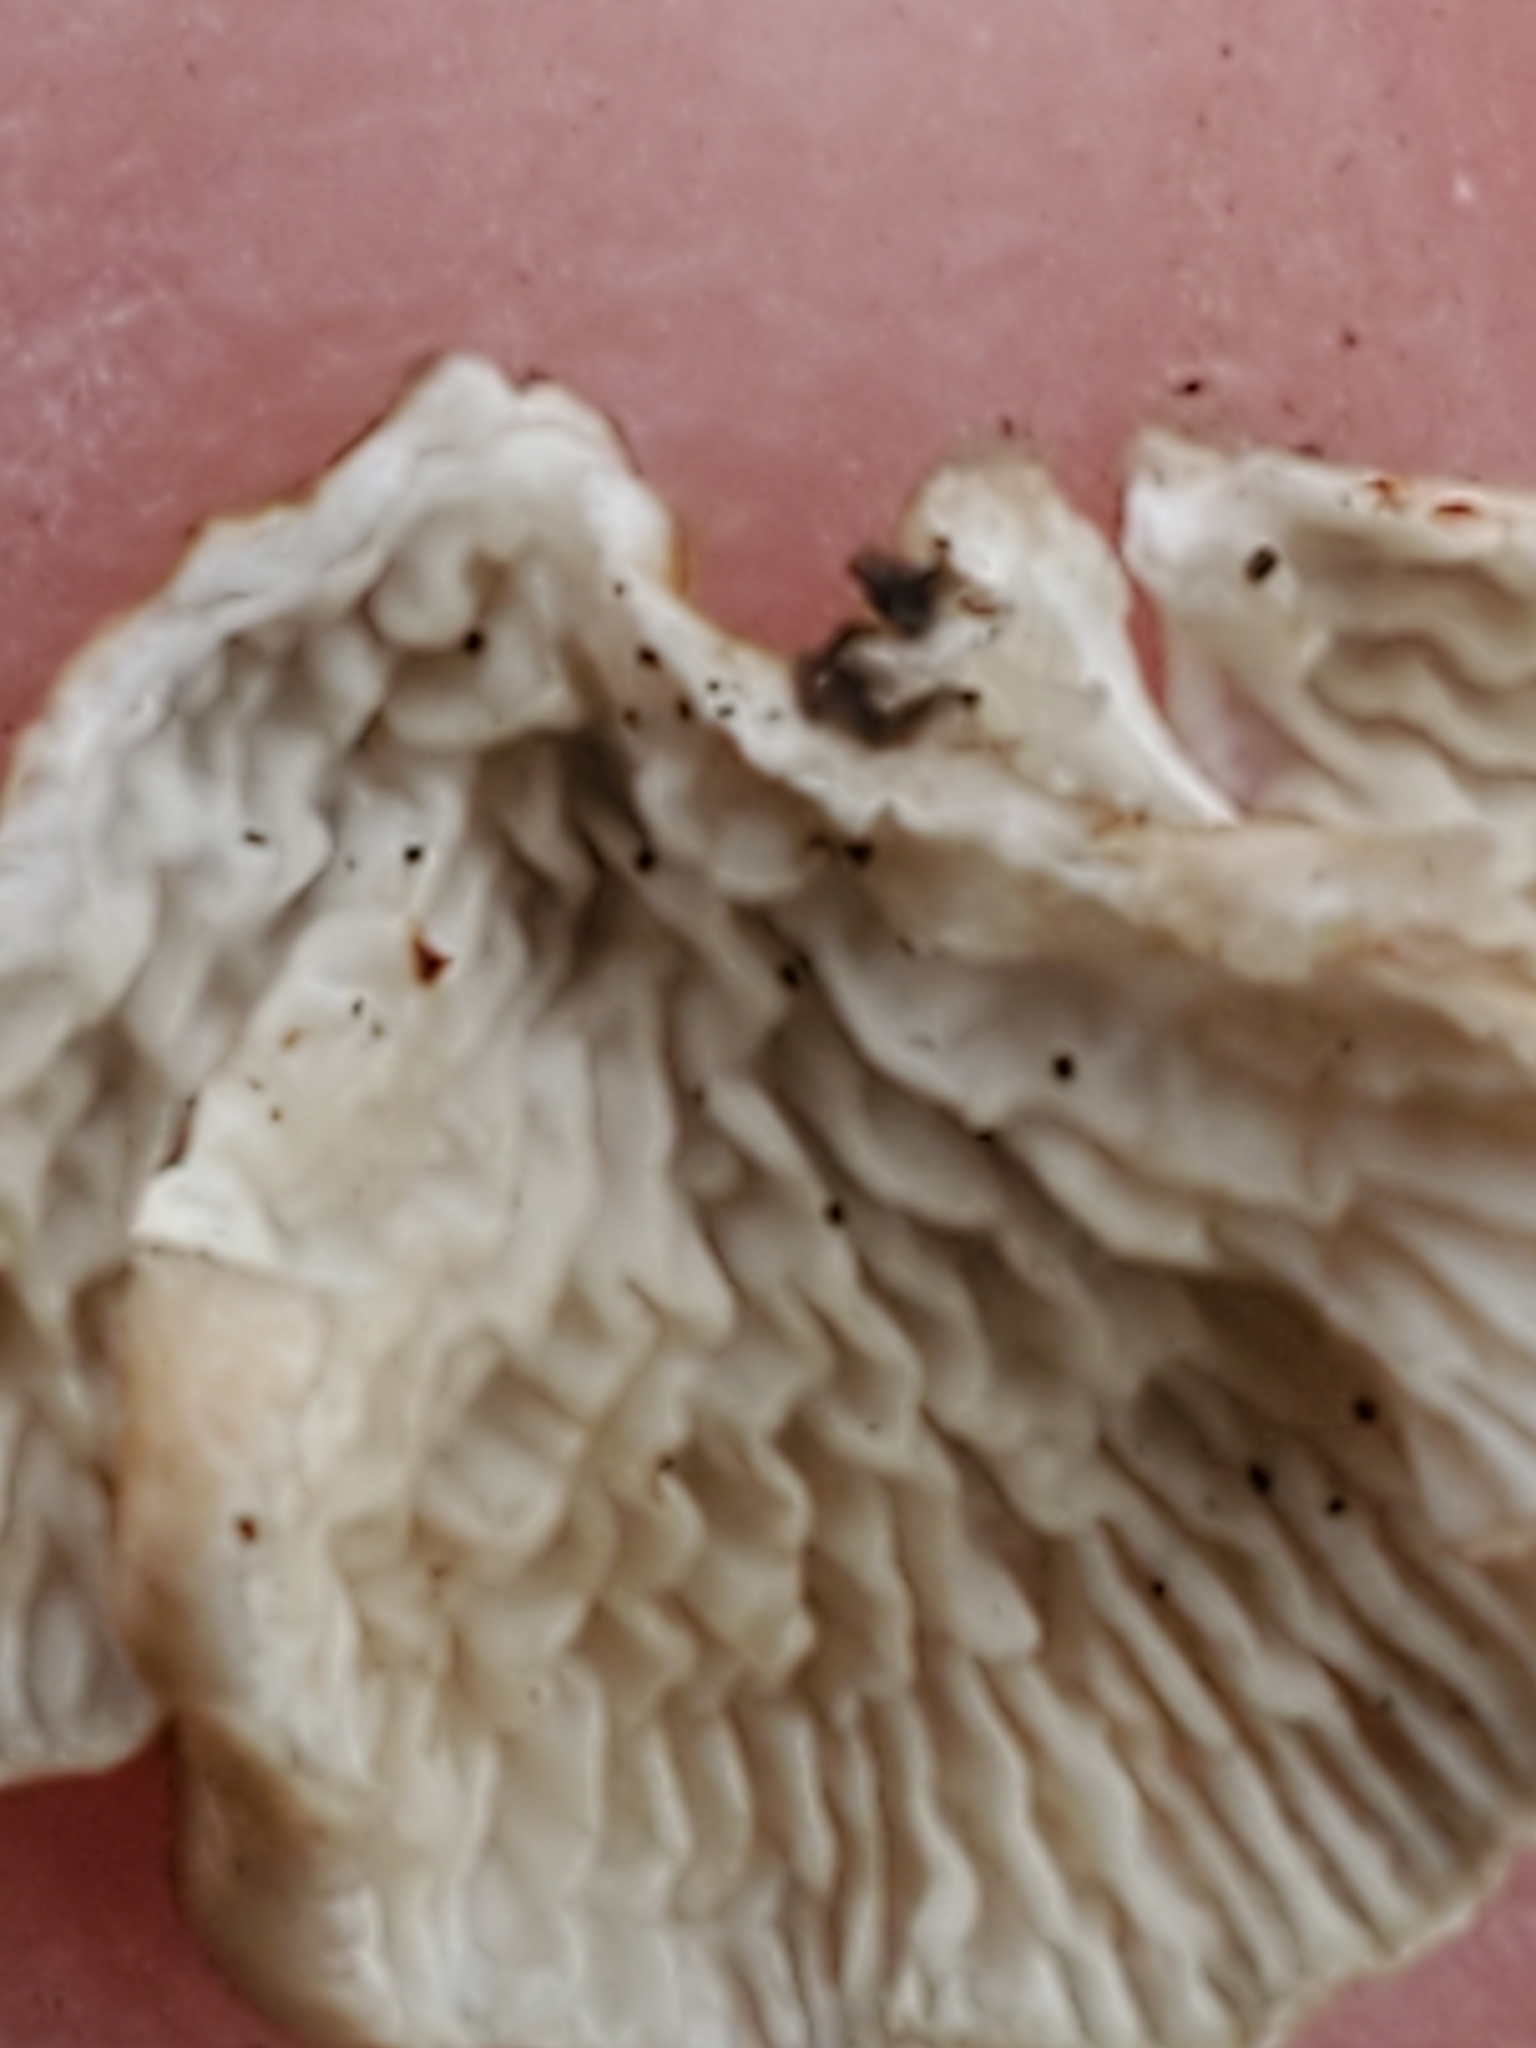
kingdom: Fungi
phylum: Basidiomycota
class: Agaricomycetes
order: Amylocorticiales
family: Amylocorticiaceae
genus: Plicaturopsis
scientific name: Plicaturopsis crispa
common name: Crimped gill
